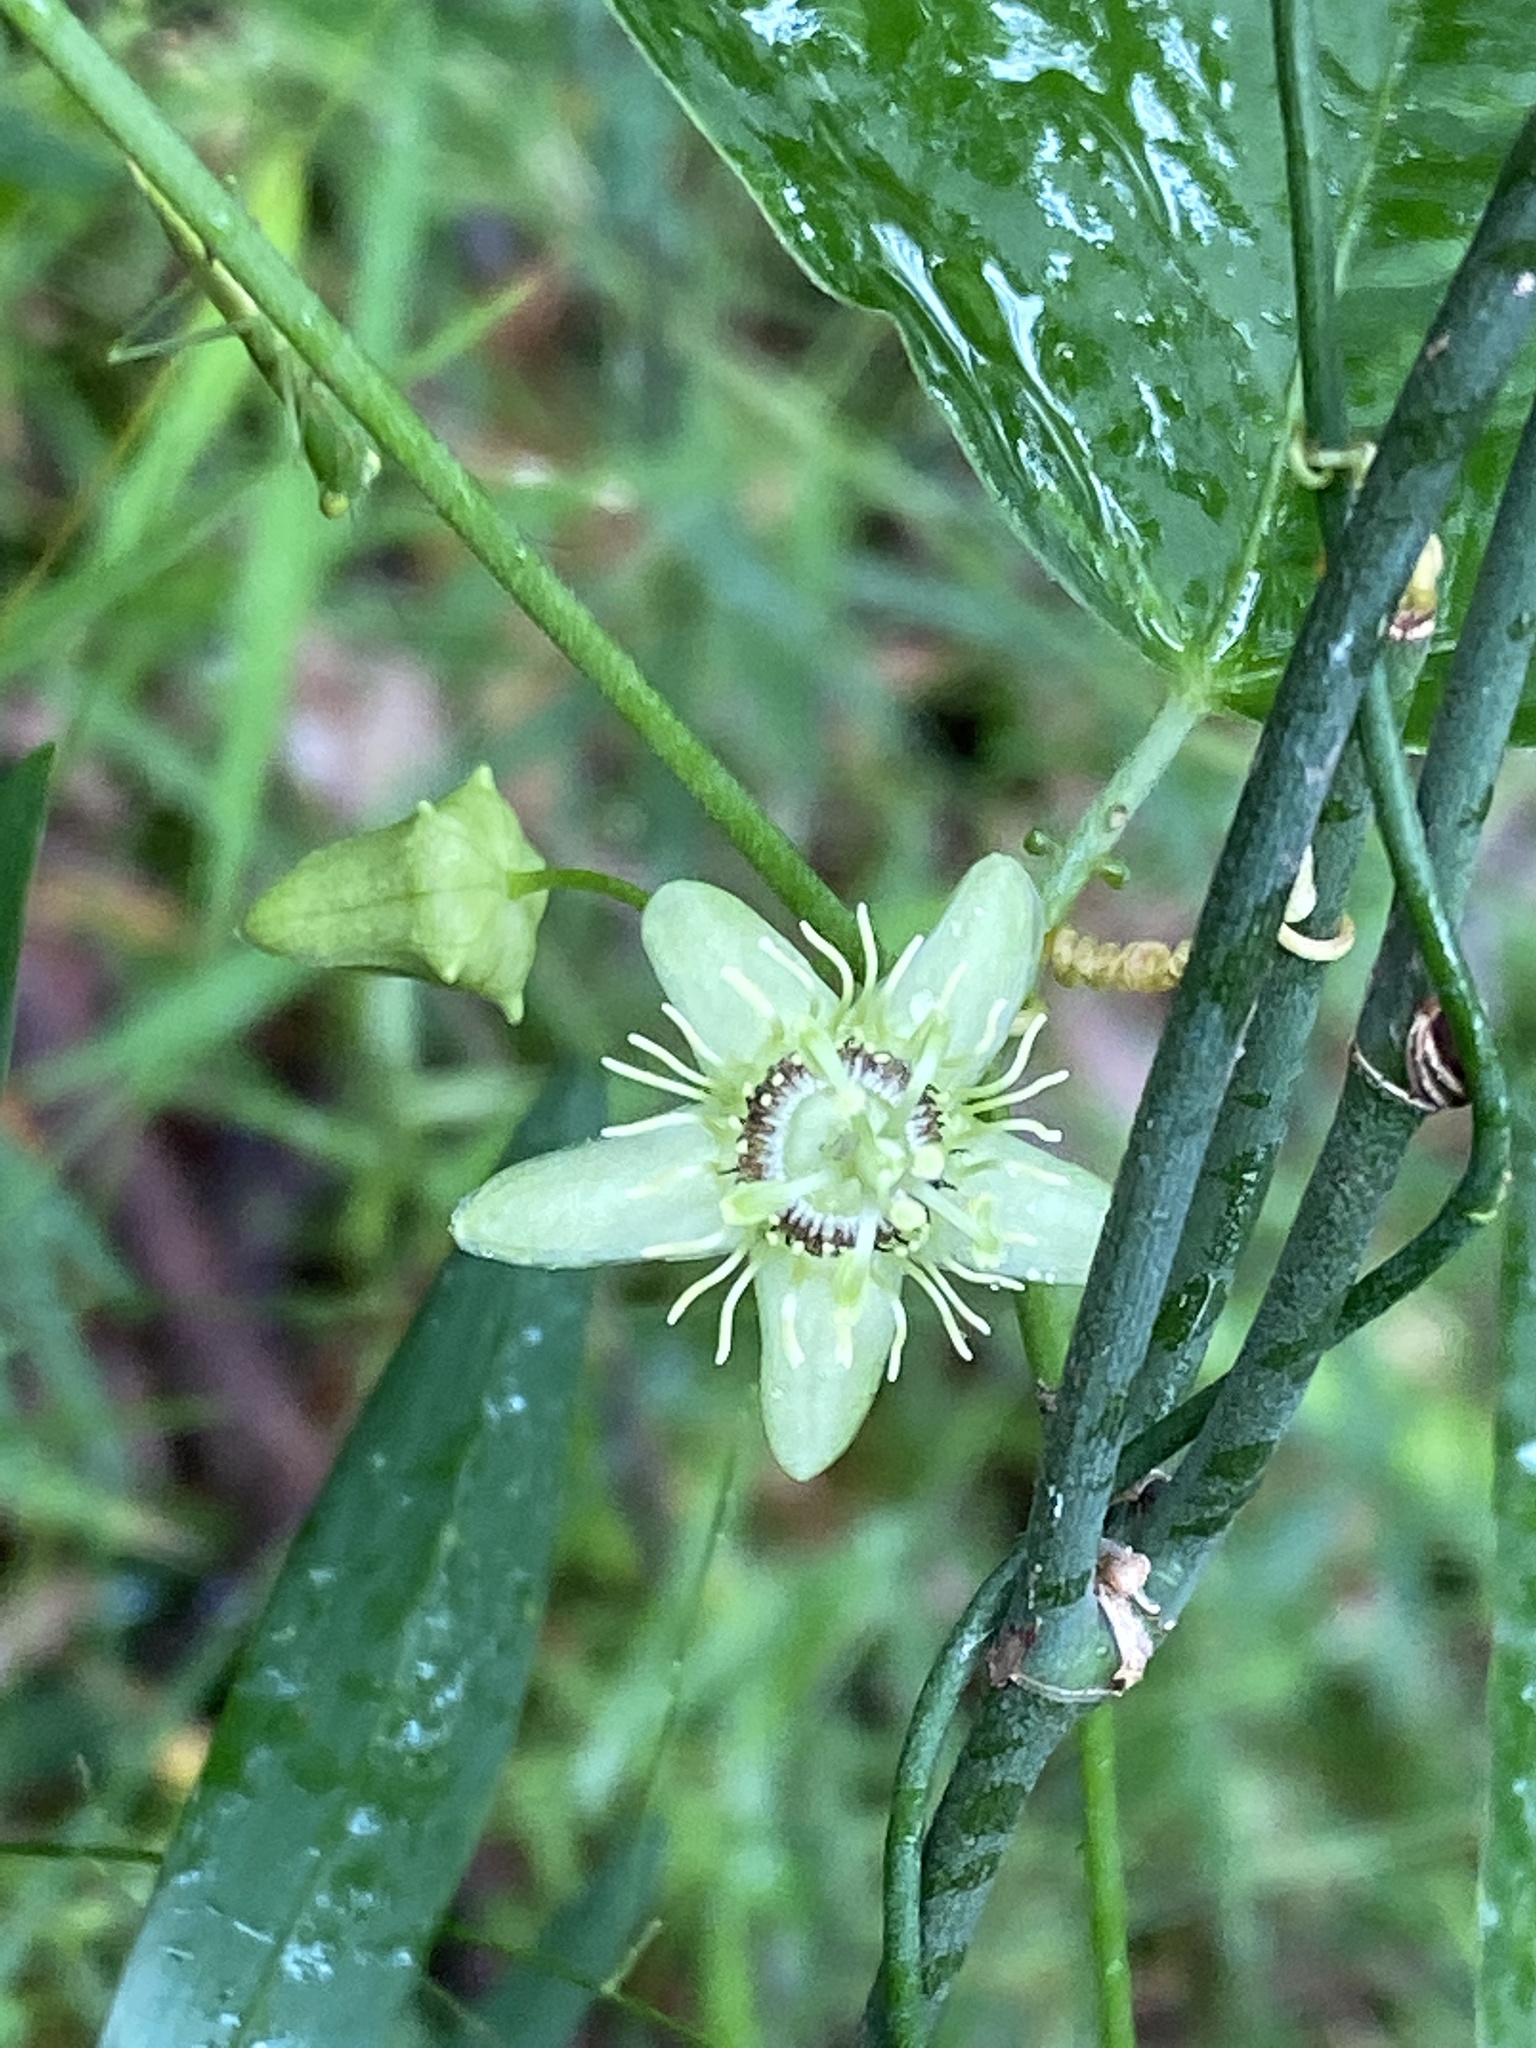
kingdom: Plantae
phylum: Tracheophyta
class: Magnoliopsida
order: Malpighiales
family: Passifloraceae
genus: Passiflora
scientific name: Passiflora suberosa
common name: Wild passionfruit
